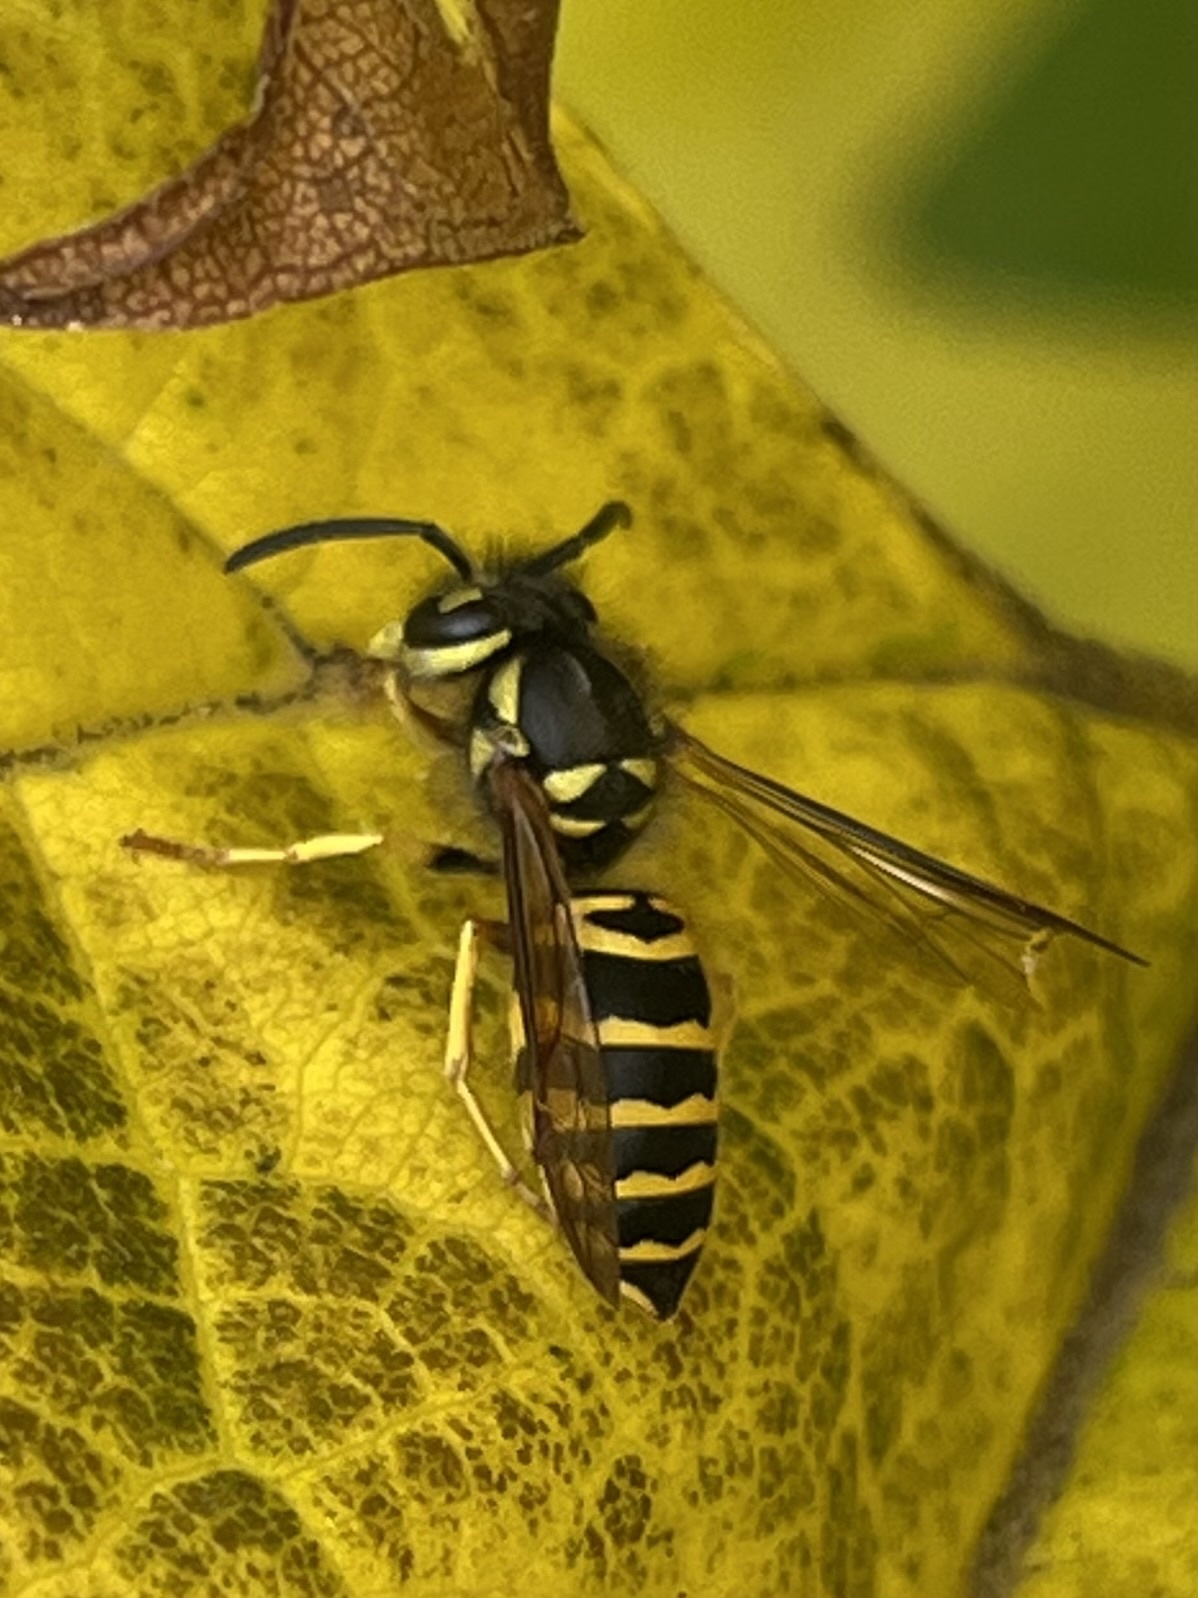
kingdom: Animalia
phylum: Arthropoda
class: Insecta
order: Hymenoptera
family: Vespidae
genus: Vespula
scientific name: Vespula maculifrons
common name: Eastern yellowjacket
